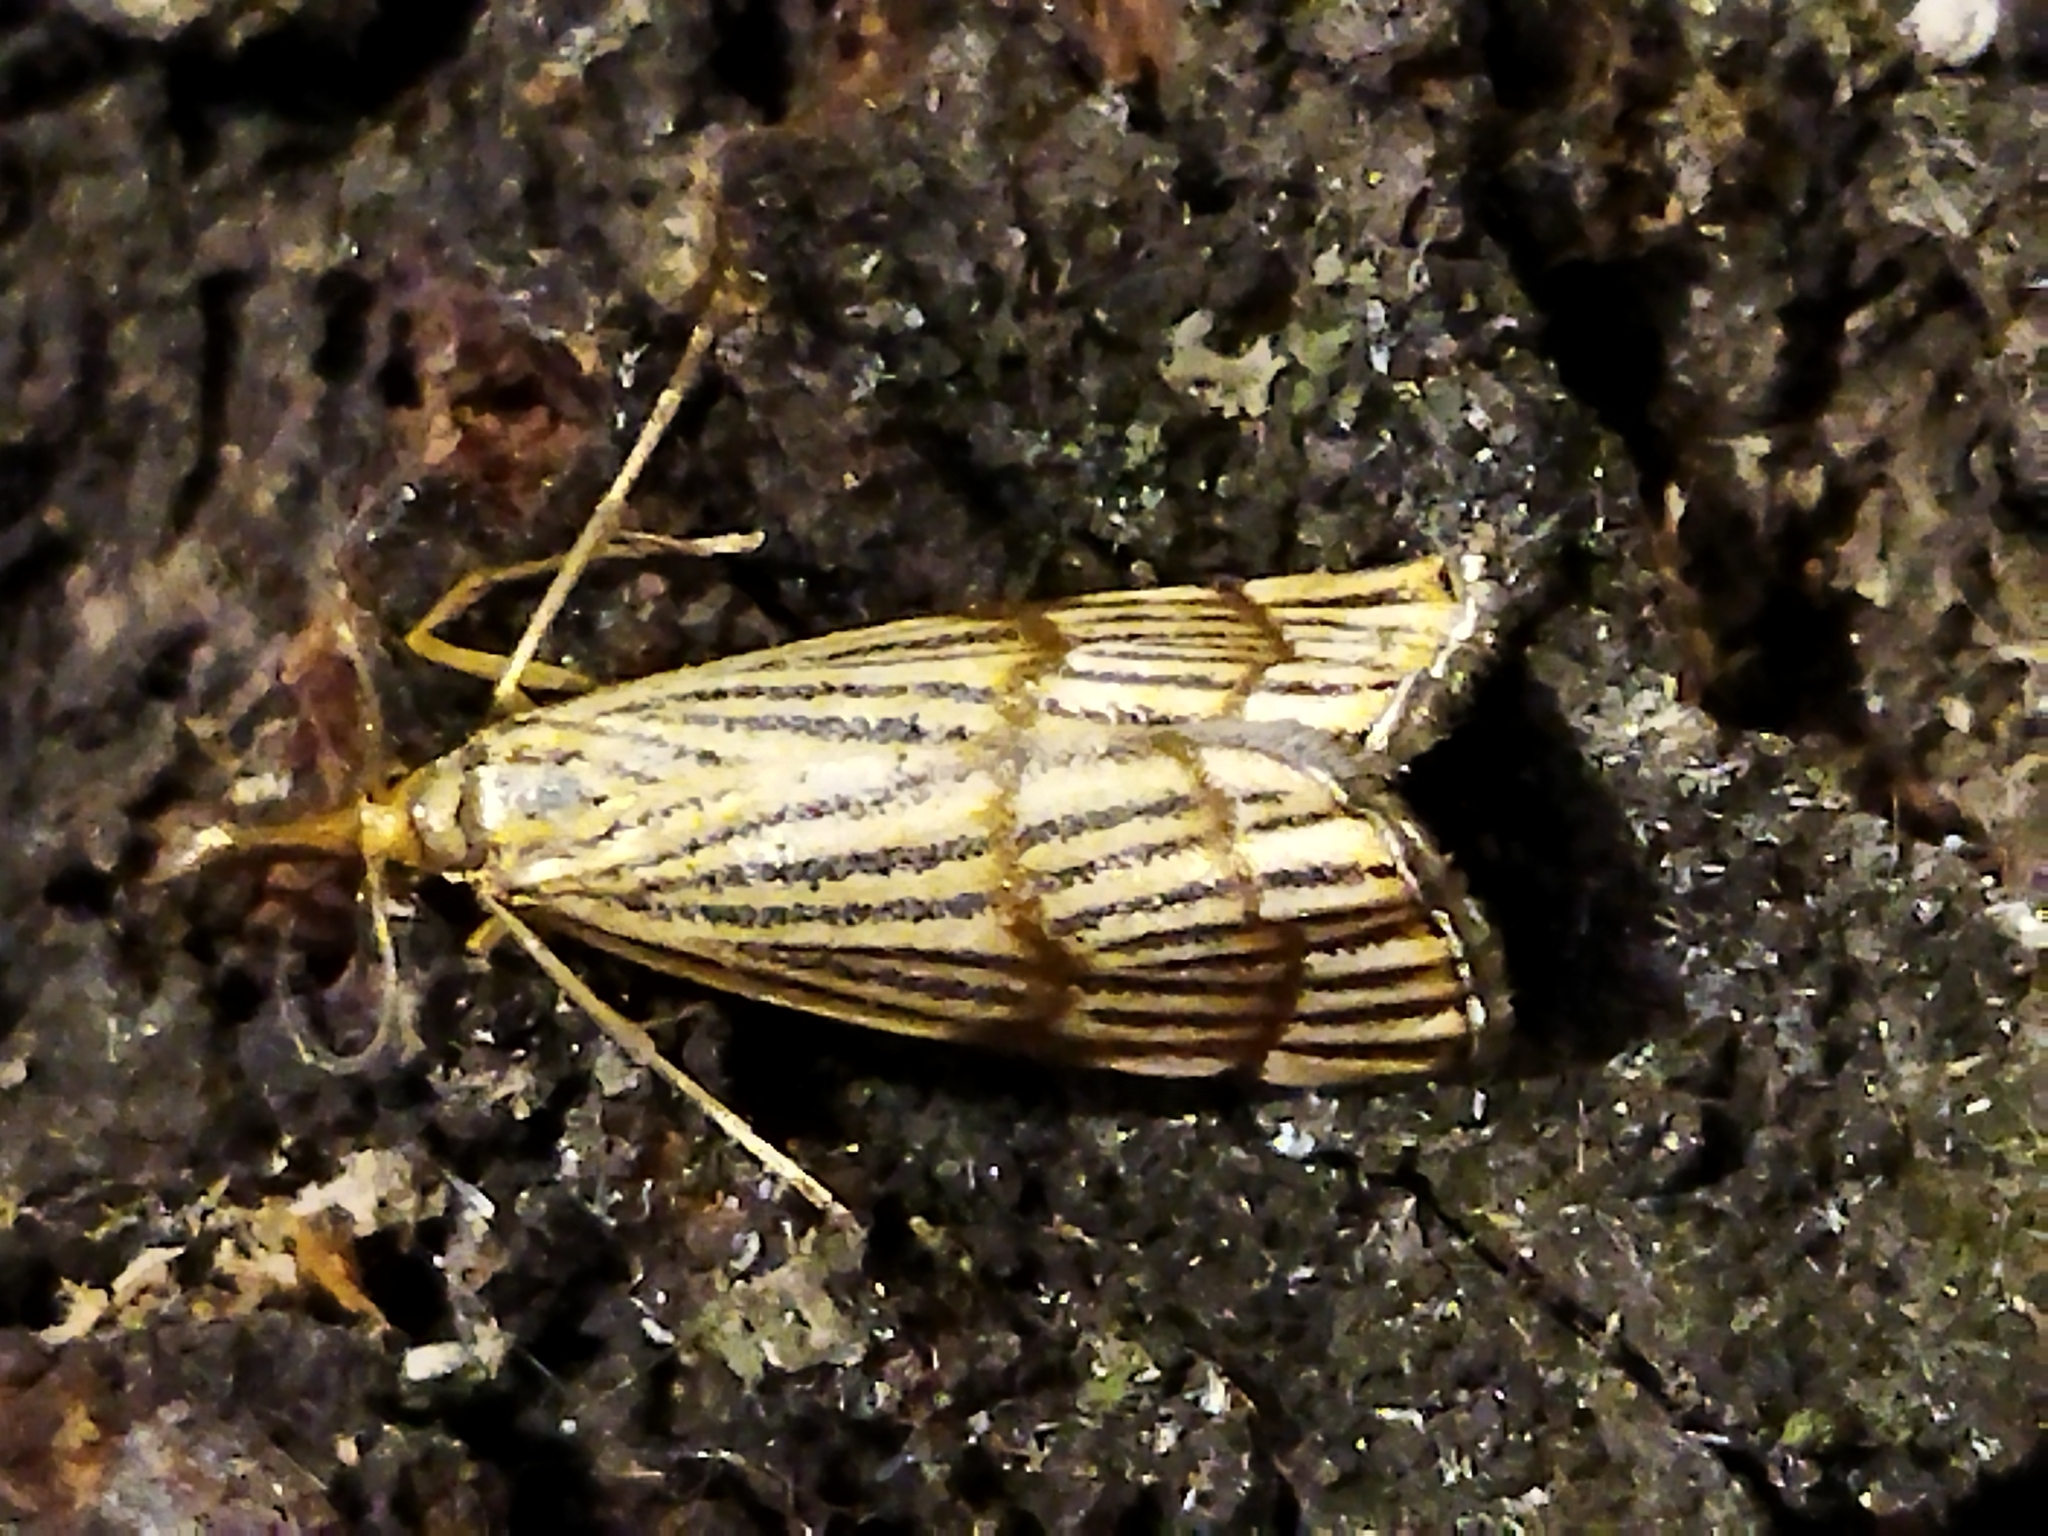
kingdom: Animalia
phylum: Arthropoda
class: Insecta
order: Lepidoptera
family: Crambidae
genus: Chrysocrambus
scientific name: Chrysocrambus linetella
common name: Orange-bar grass-veneer
